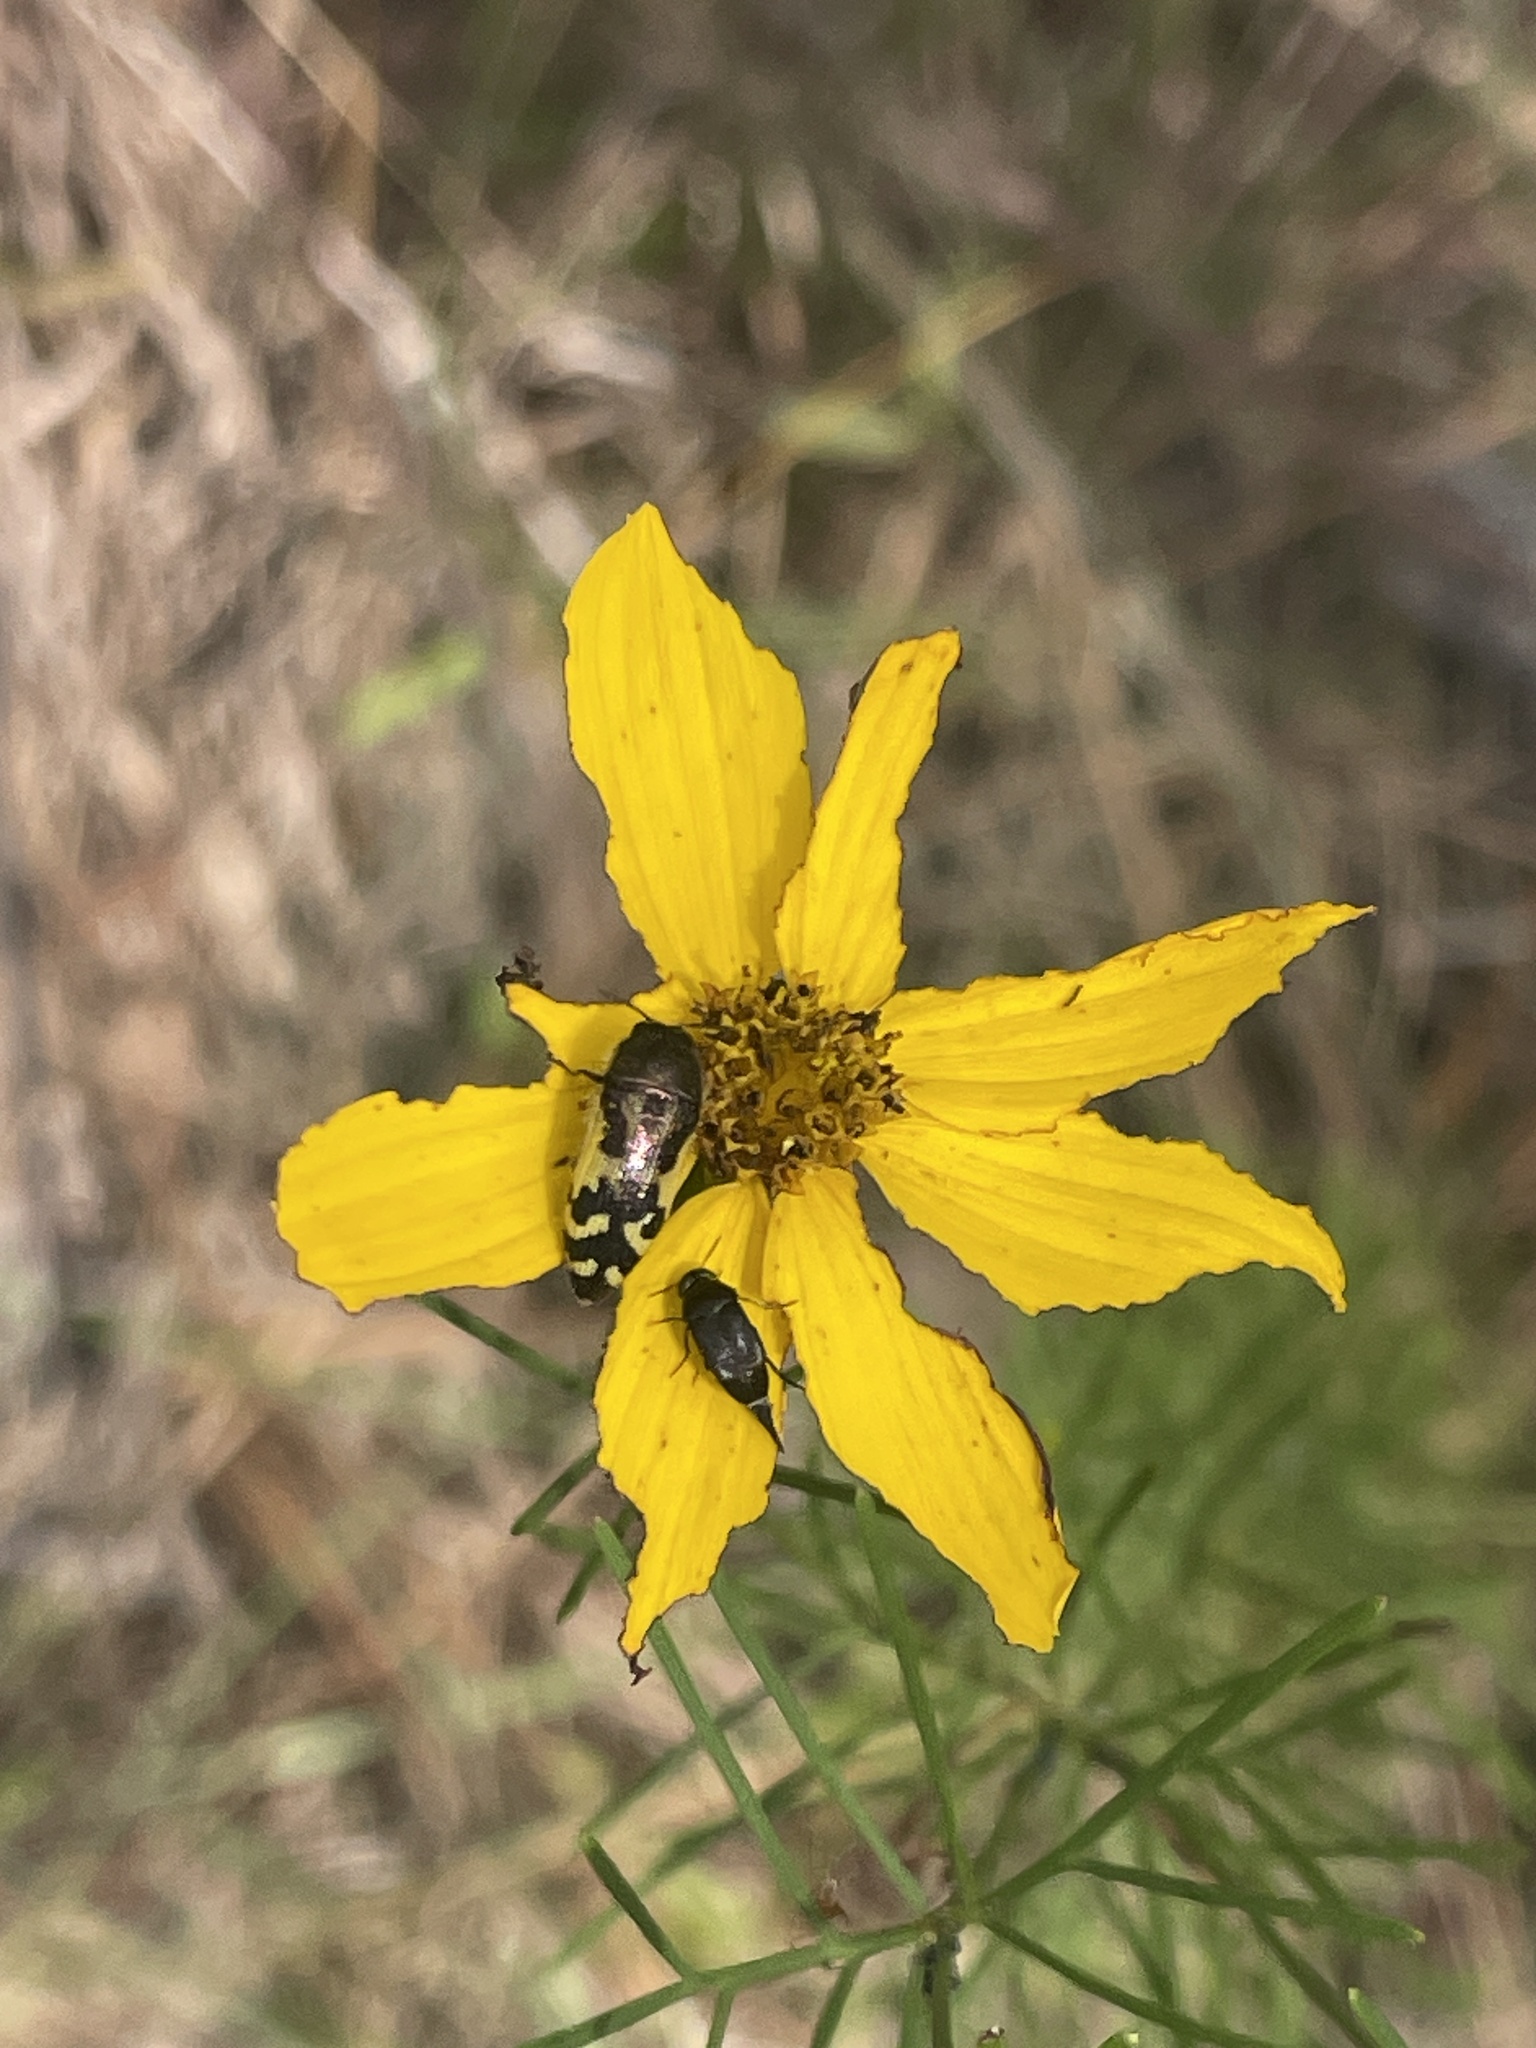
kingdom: Animalia
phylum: Arthropoda
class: Insecta
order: Coleoptera
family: Buprestidae
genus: Acmaeodera
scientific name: Acmaeodera pulchella
